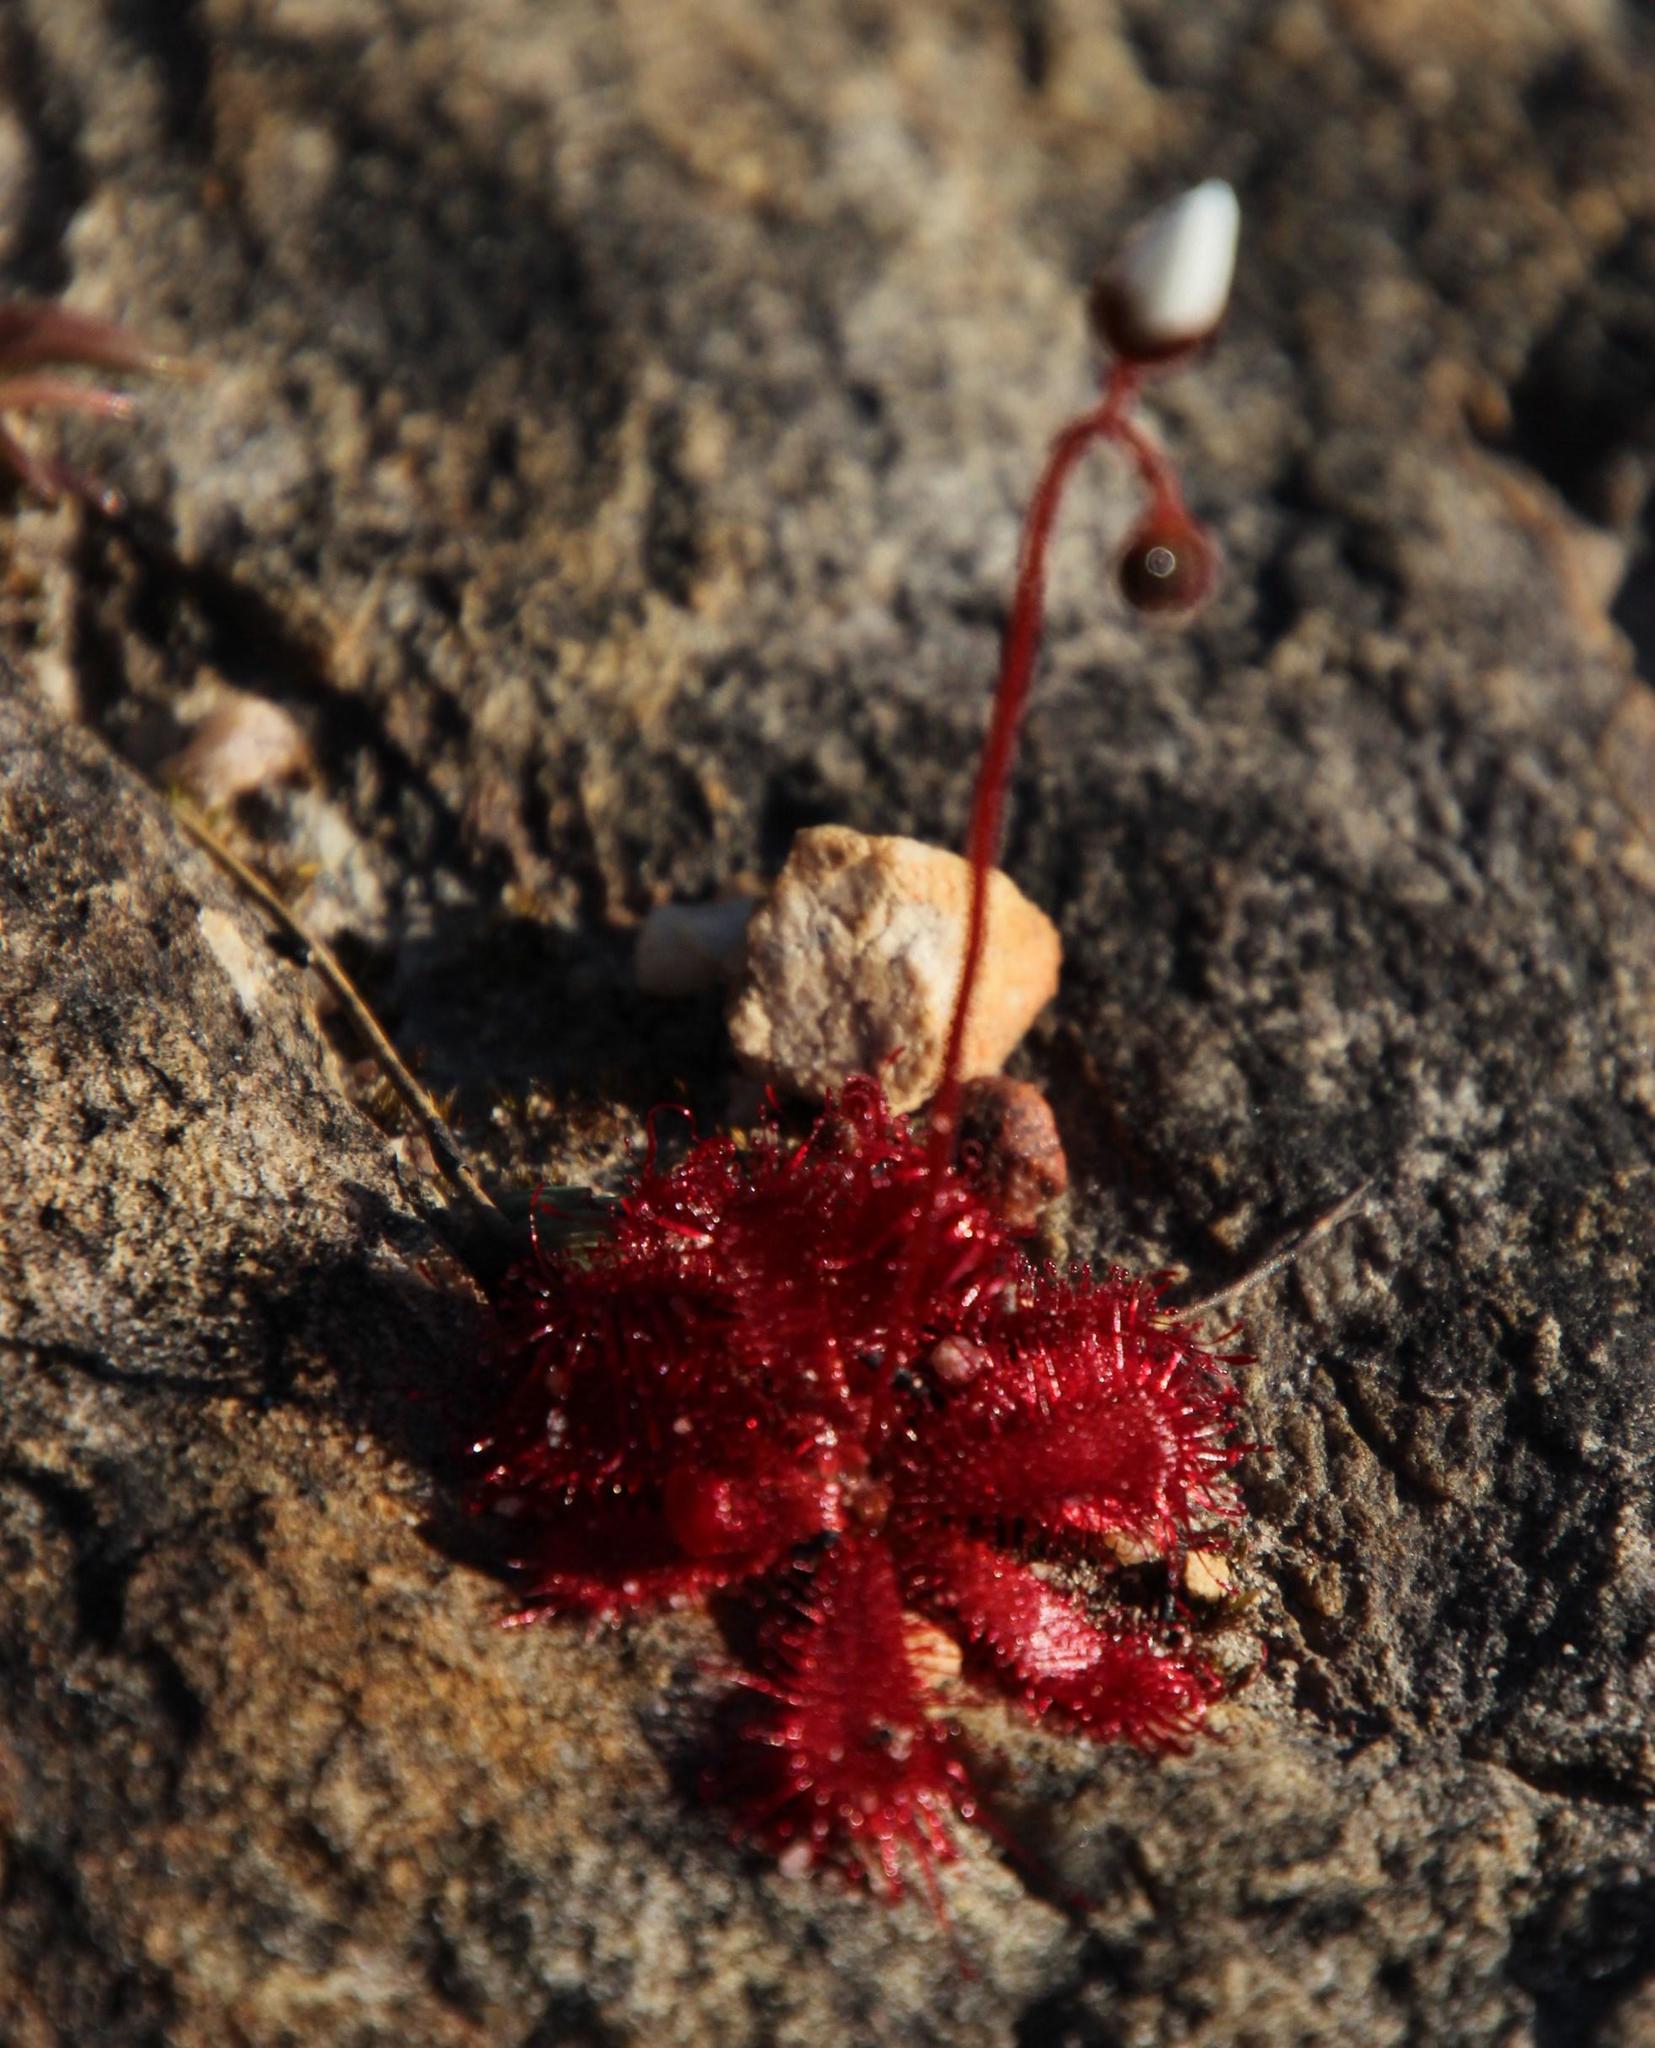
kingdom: Plantae
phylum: Tracheophyta
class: Magnoliopsida
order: Caryophyllales
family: Droseraceae
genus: Drosera
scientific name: Drosera trinervia
